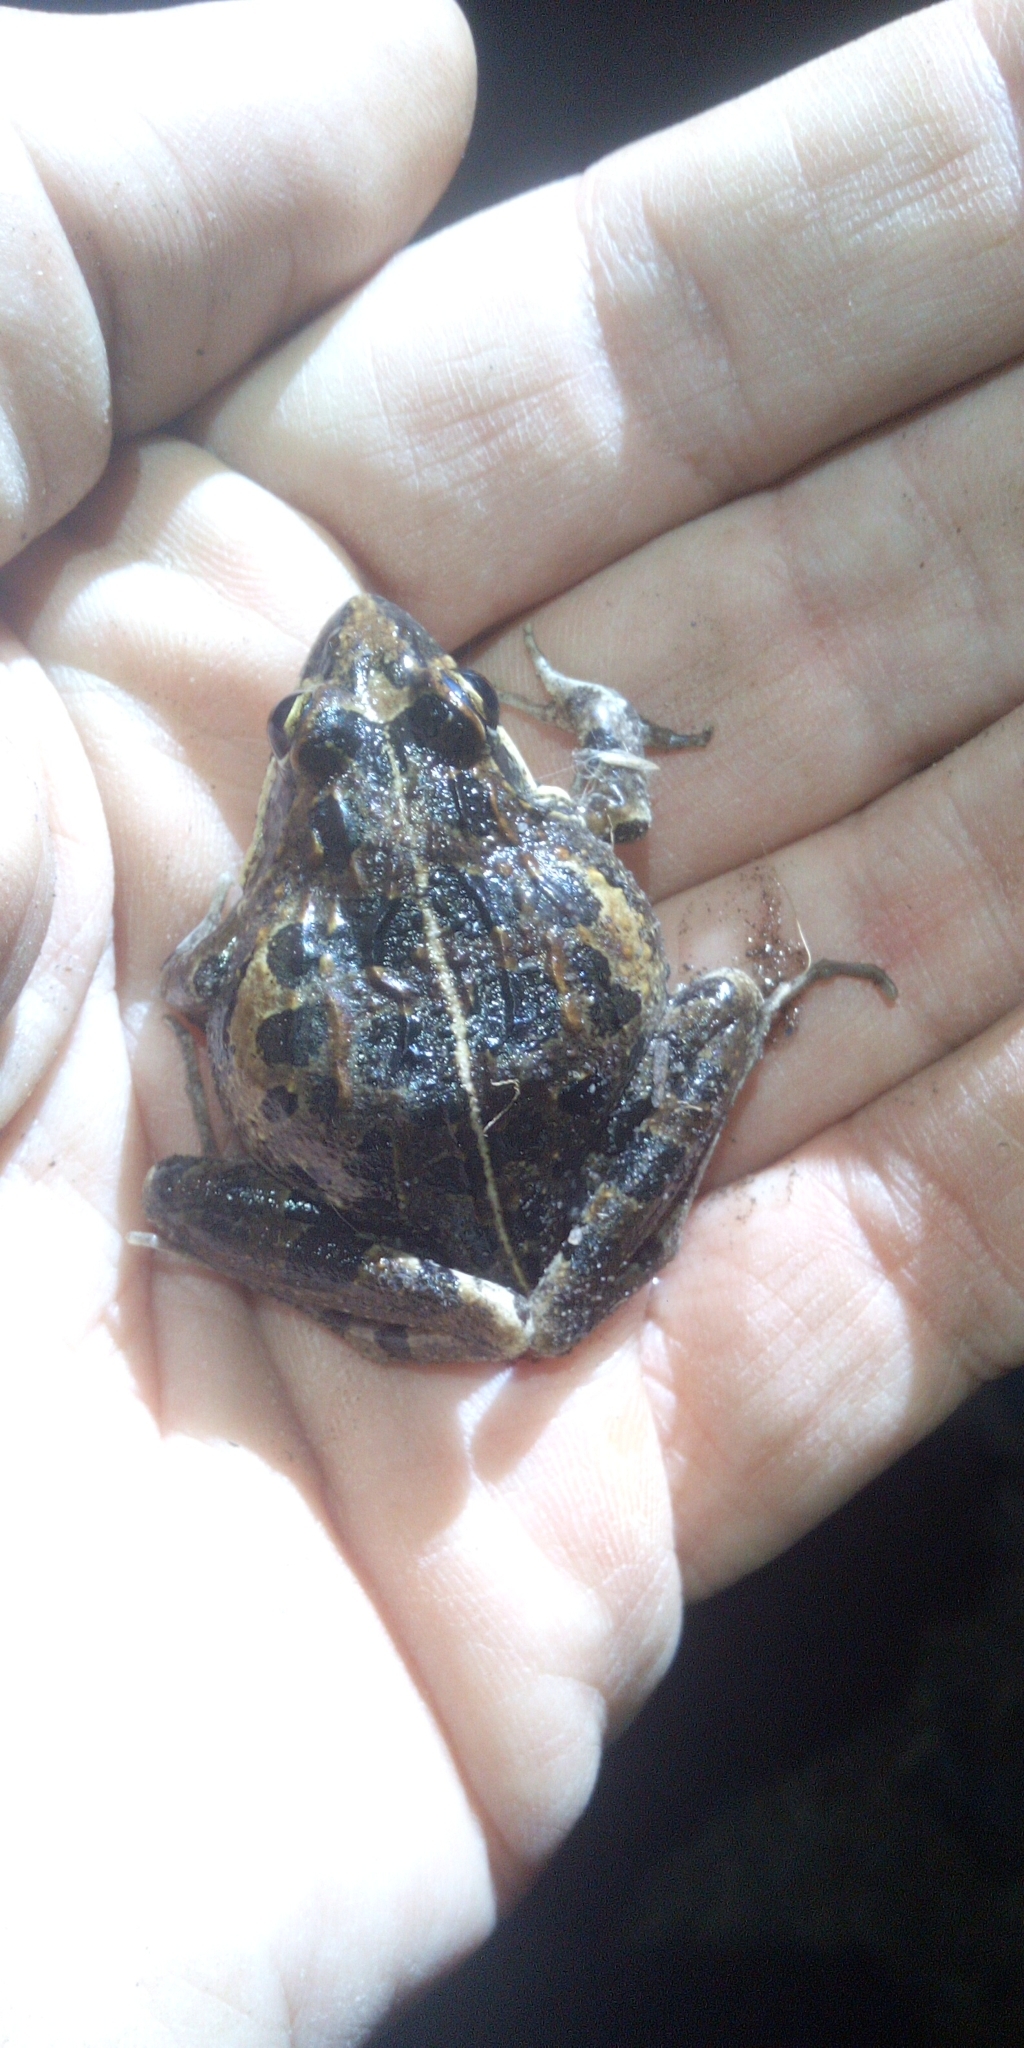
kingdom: Animalia
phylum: Chordata
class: Amphibia
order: Anura
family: Pyxicephalidae
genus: Strongylopus
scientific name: Strongylopus grayii
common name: Gray's stream frog
